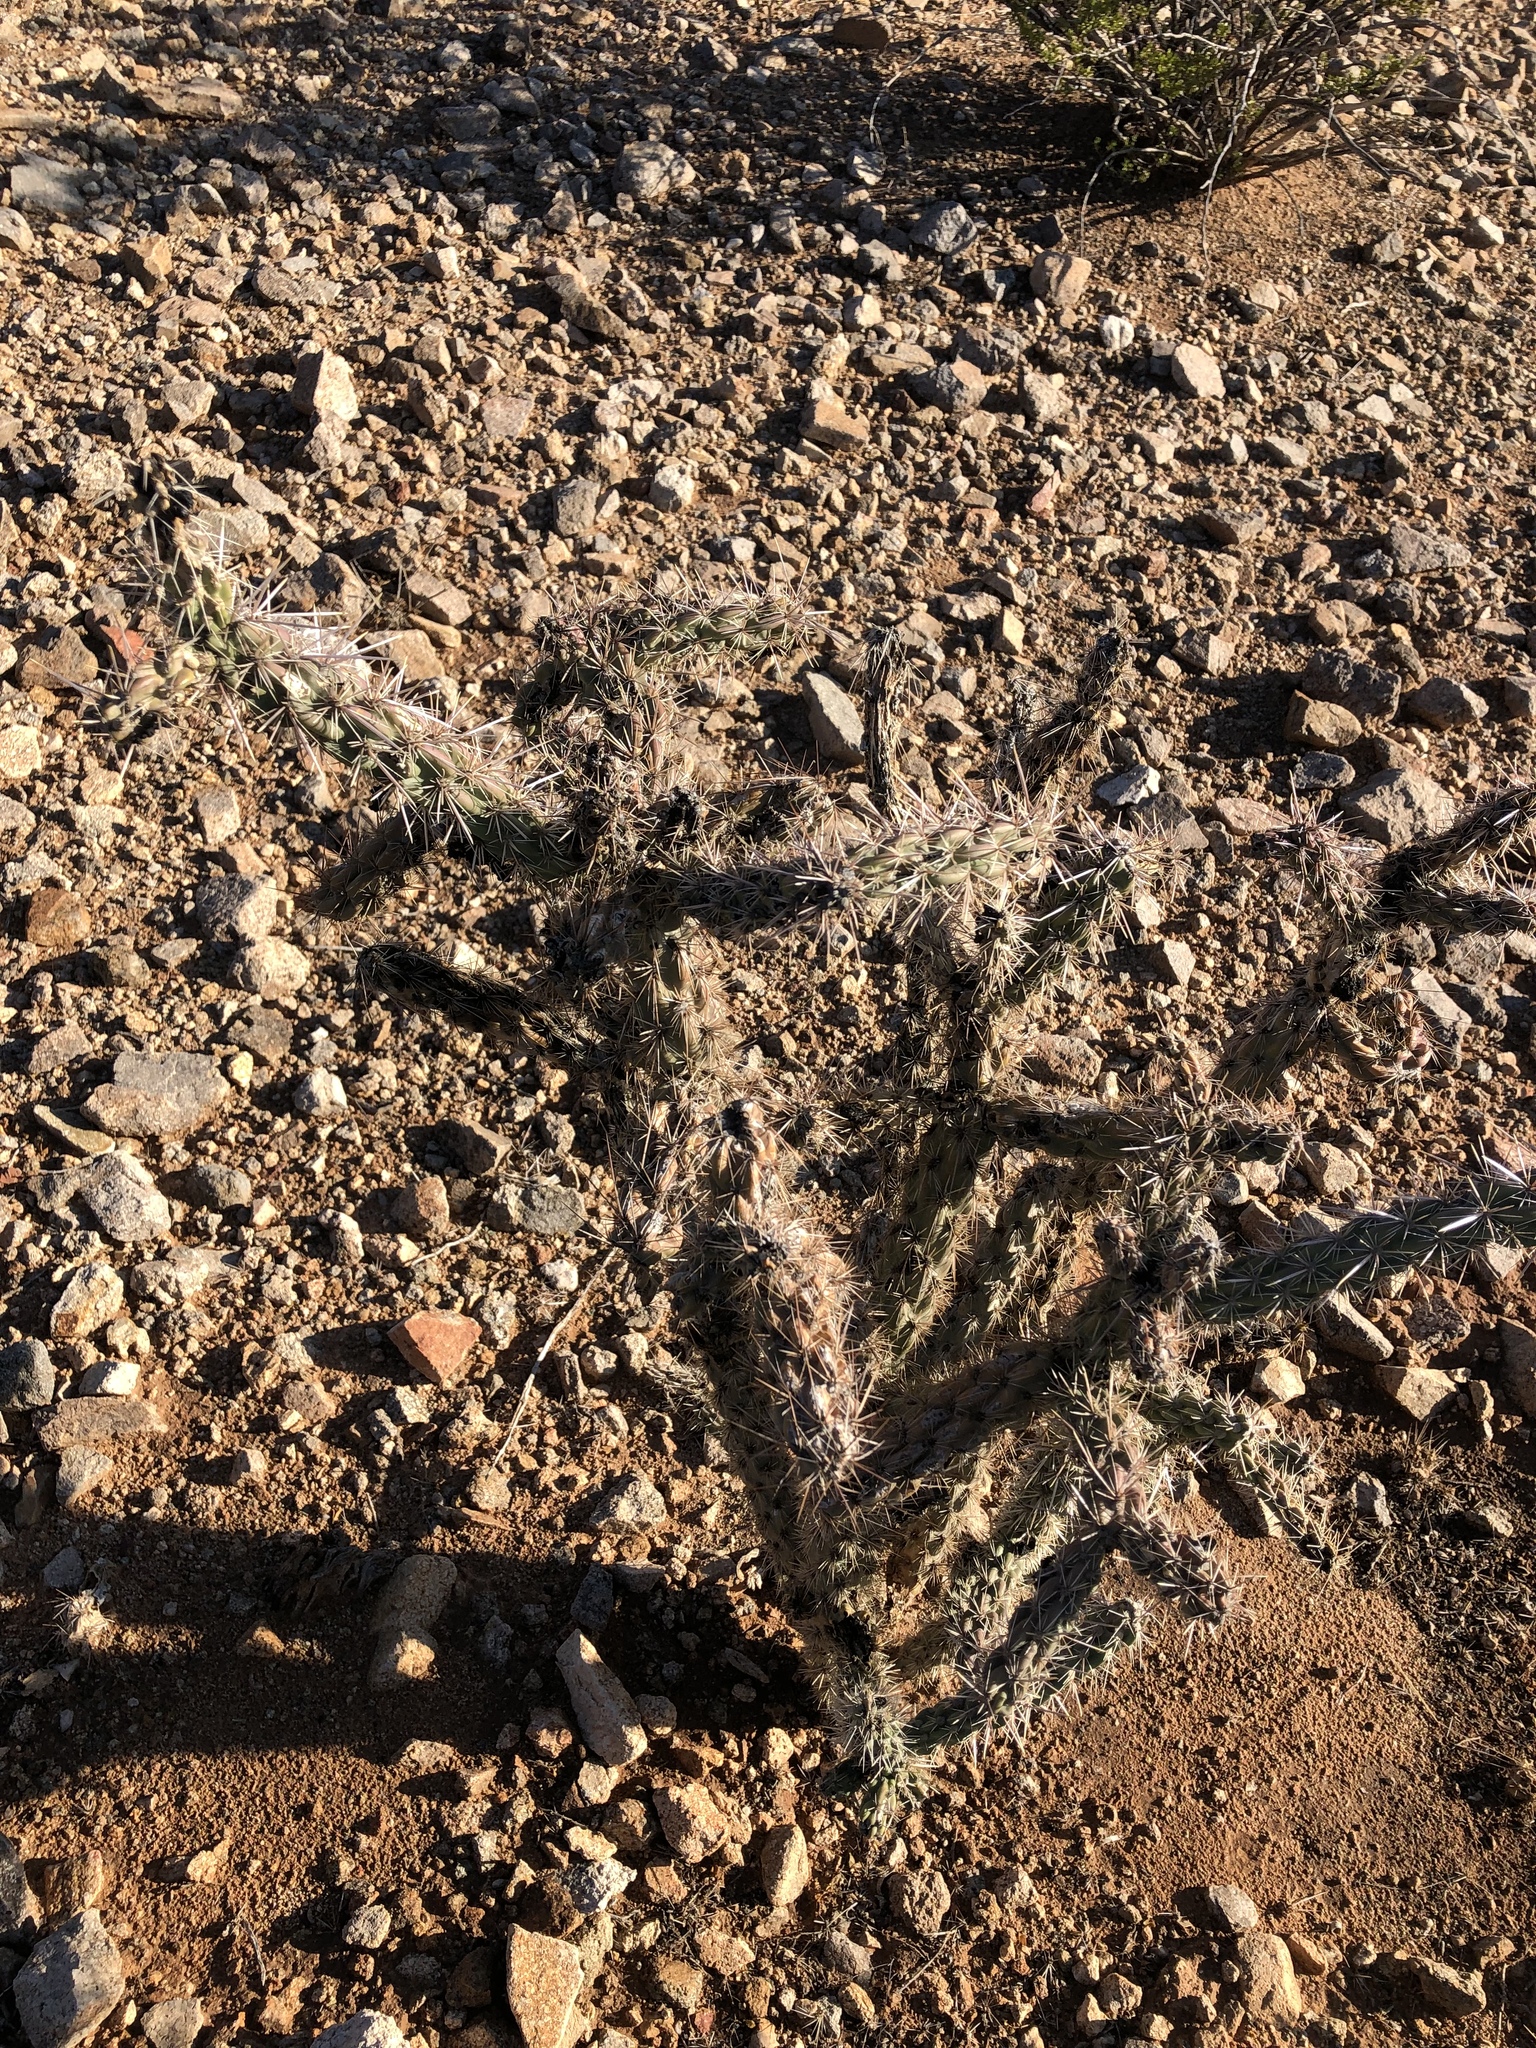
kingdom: Plantae
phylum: Tracheophyta
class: Magnoliopsida
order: Caryophyllales
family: Cactaceae
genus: Cylindropuntia
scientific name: Cylindropuntia imbricata
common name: Candelabrum cactus
